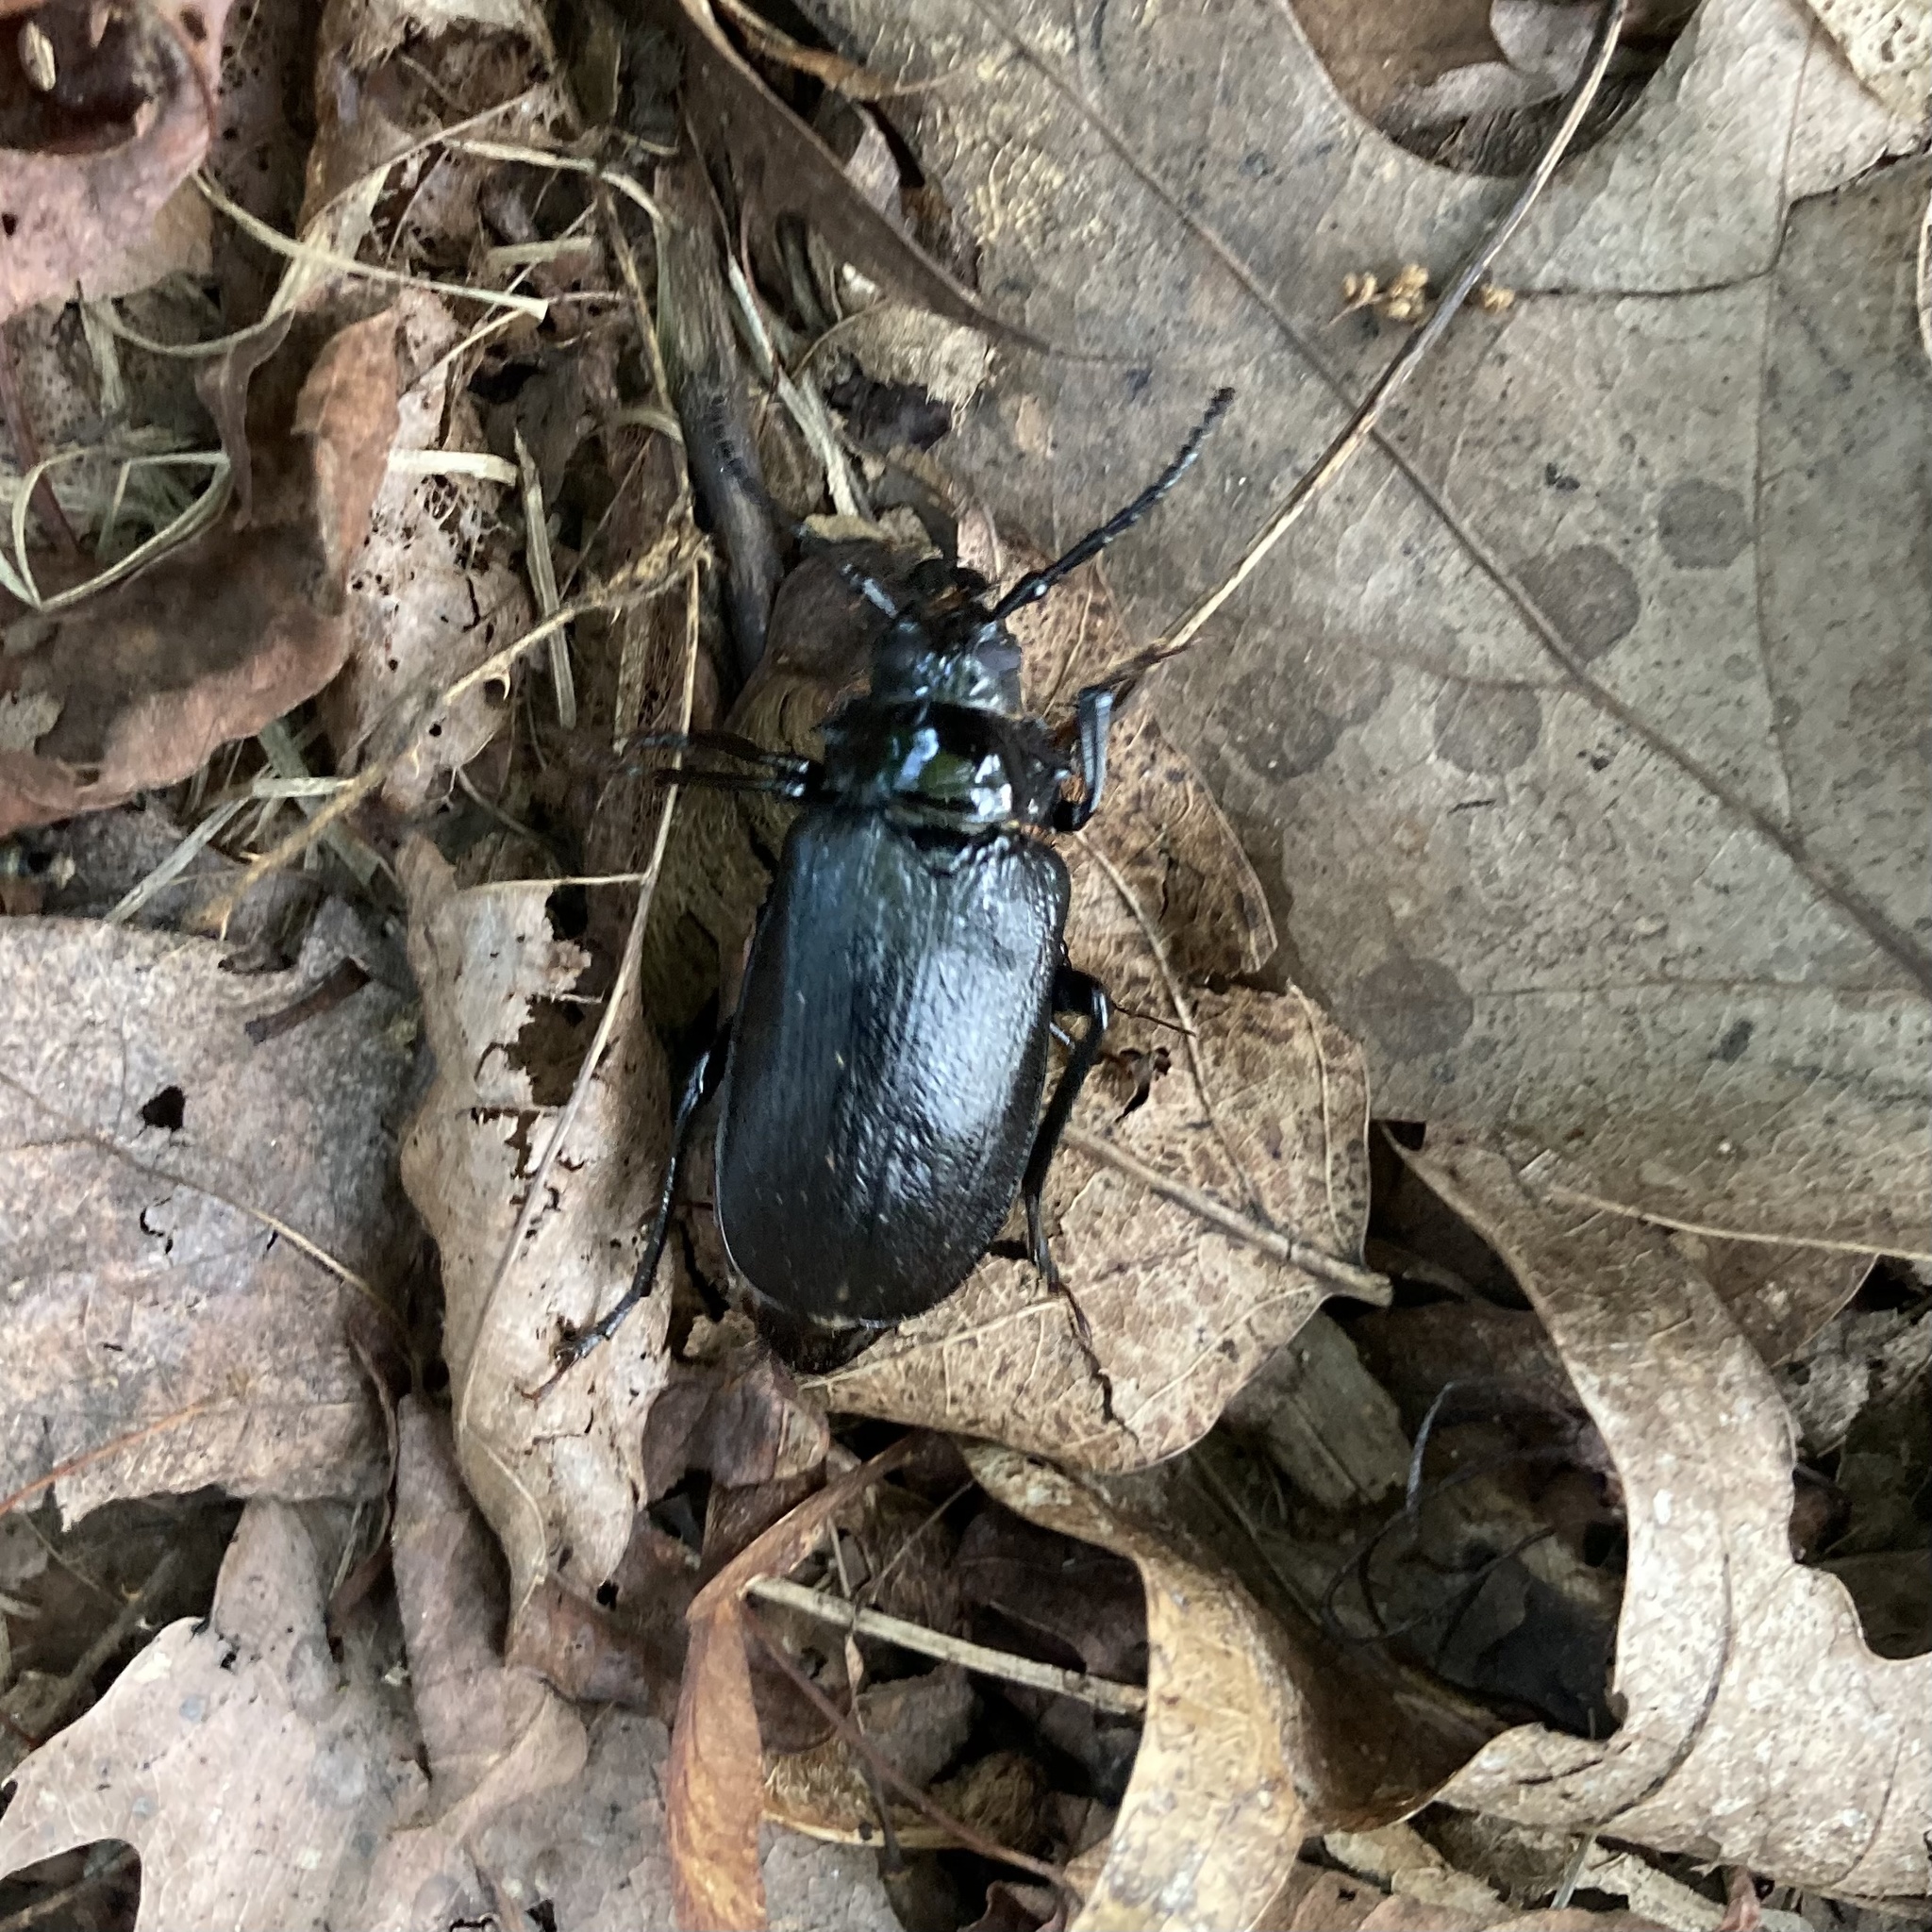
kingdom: Animalia
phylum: Arthropoda
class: Insecta
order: Coleoptera
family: Cerambycidae
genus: Prionus
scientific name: Prionus laticollis
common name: Broad necked prionus
